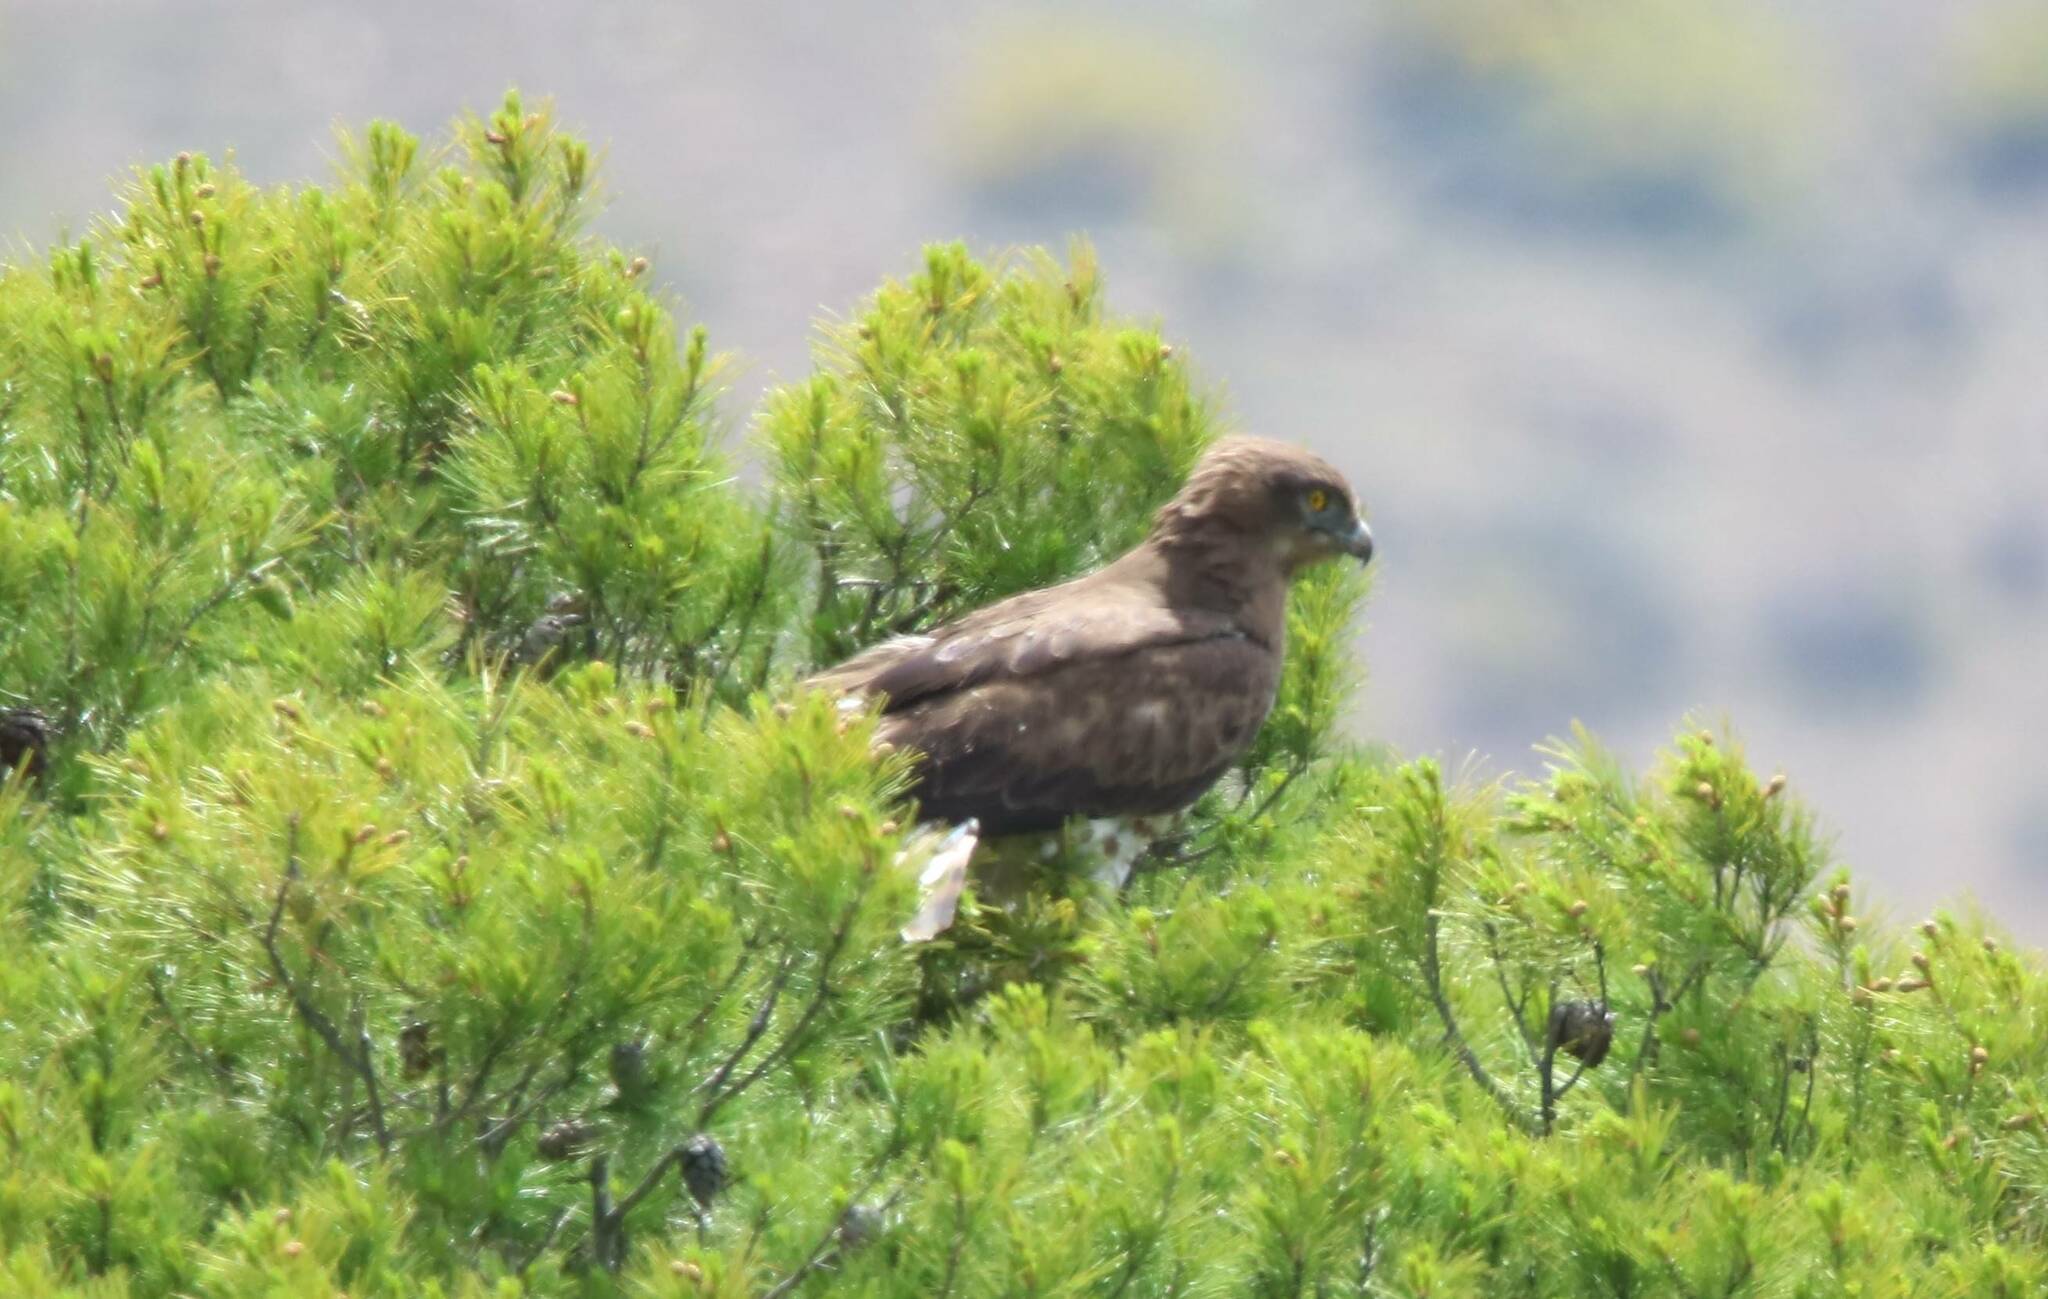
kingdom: Animalia
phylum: Chordata
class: Aves
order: Accipitriformes
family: Accipitridae
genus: Circaetus
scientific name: Circaetus gallicus
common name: Short-toed snake eagle
